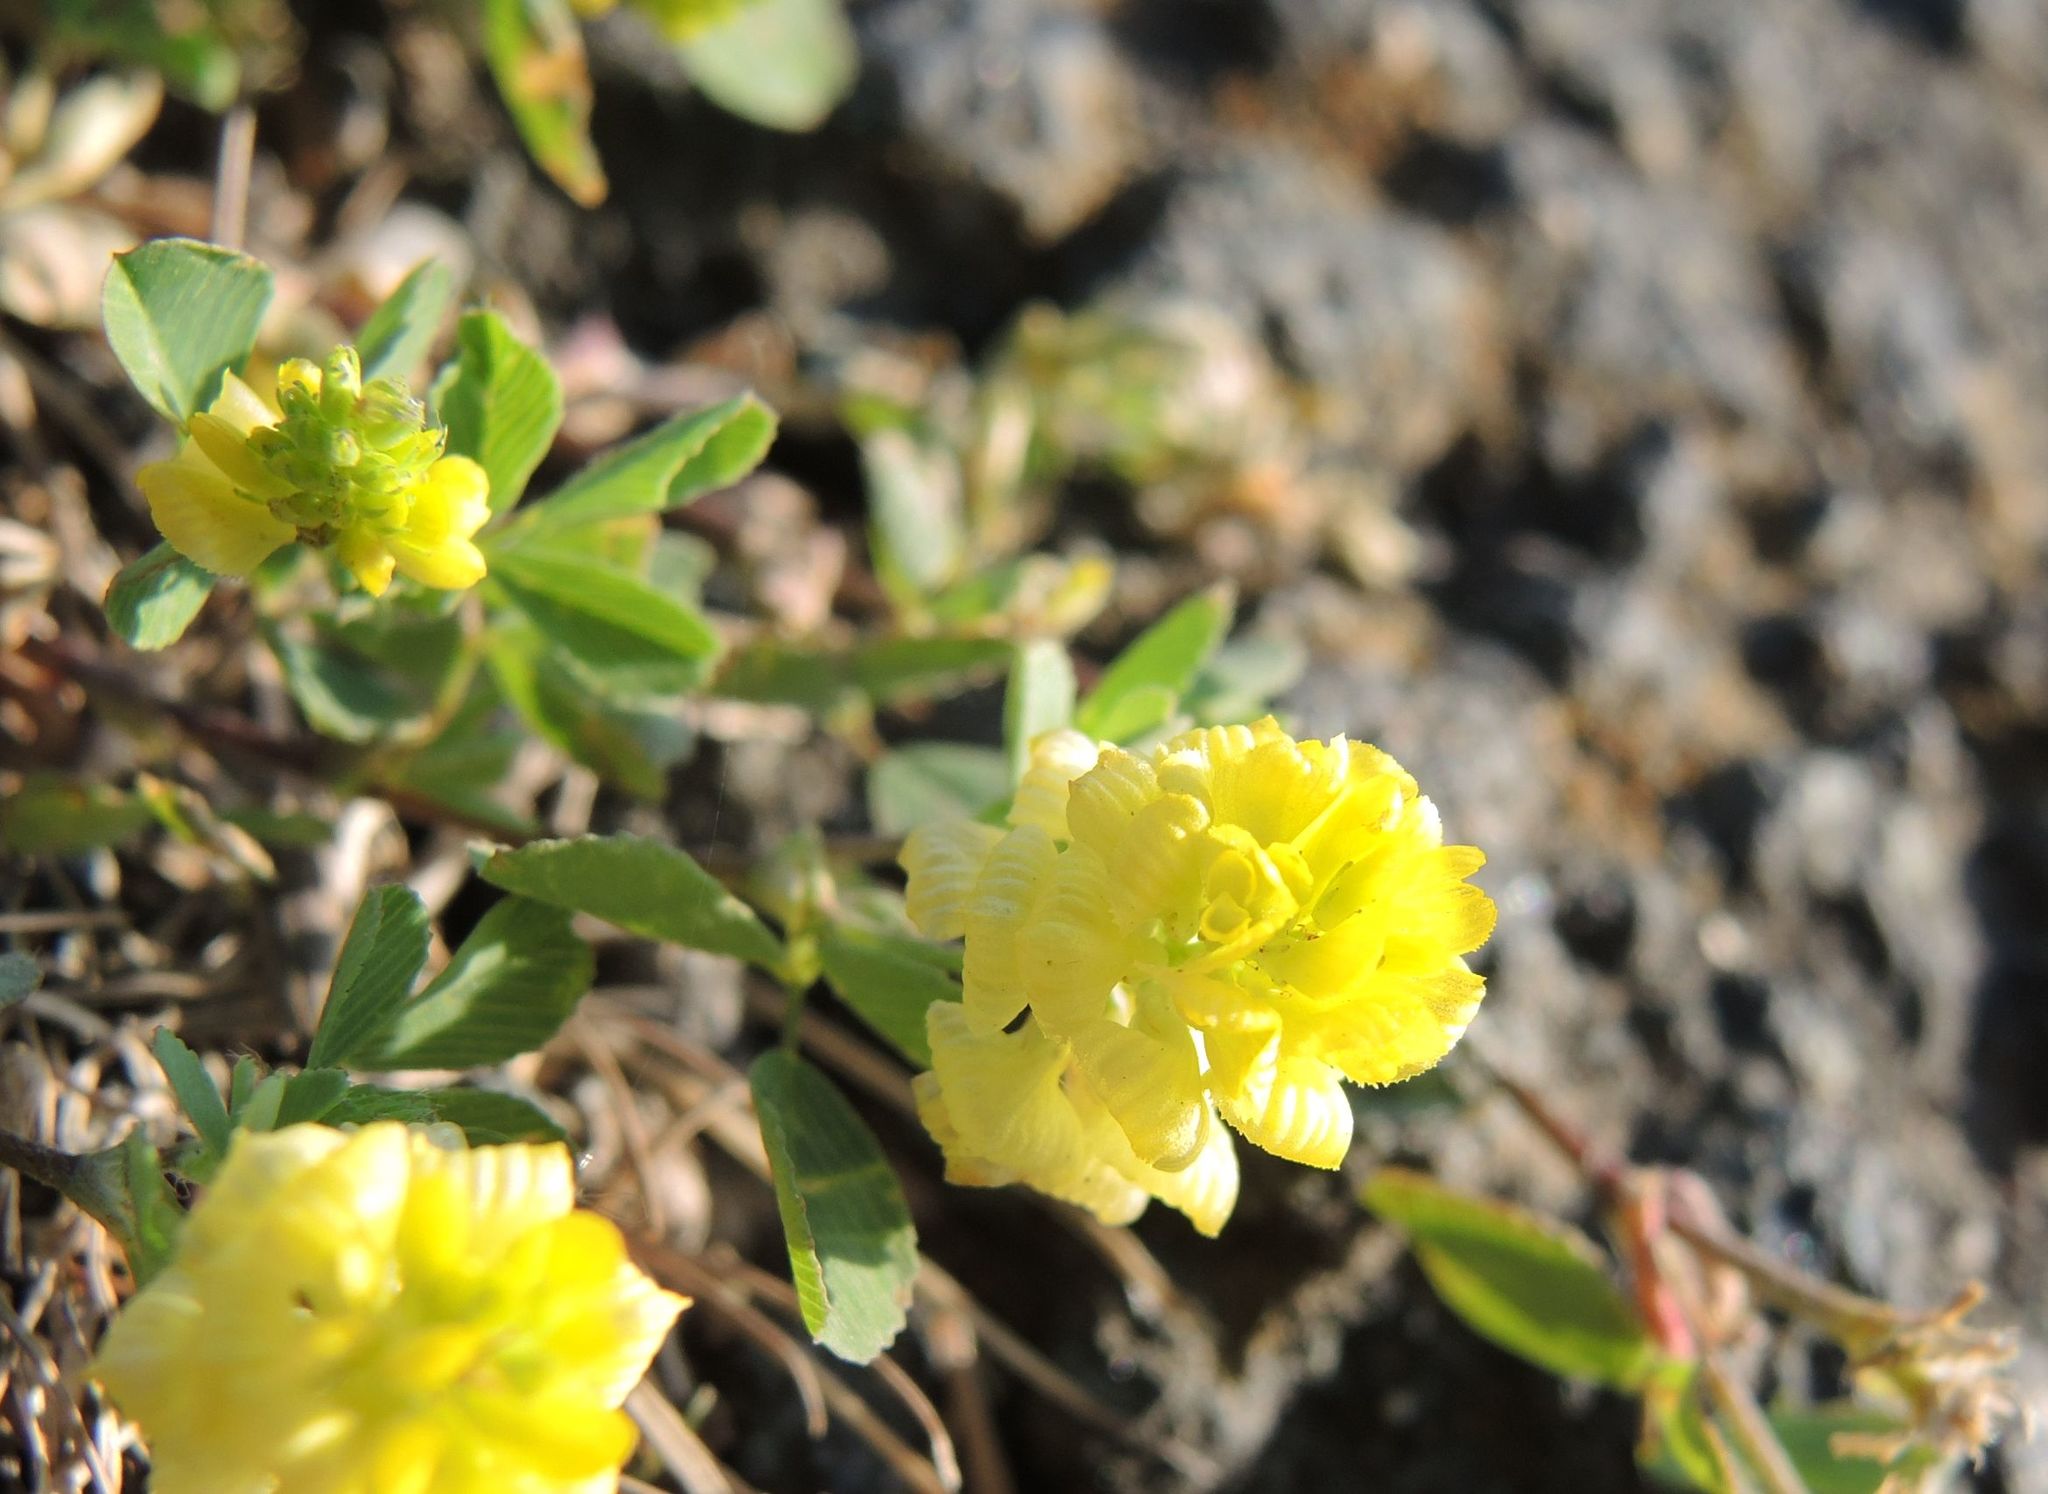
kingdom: Plantae
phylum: Tracheophyta
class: Magnoliopsida
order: Fabales
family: Fabaceae
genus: Trifolium
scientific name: Trifolium campestre
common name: Field clover
